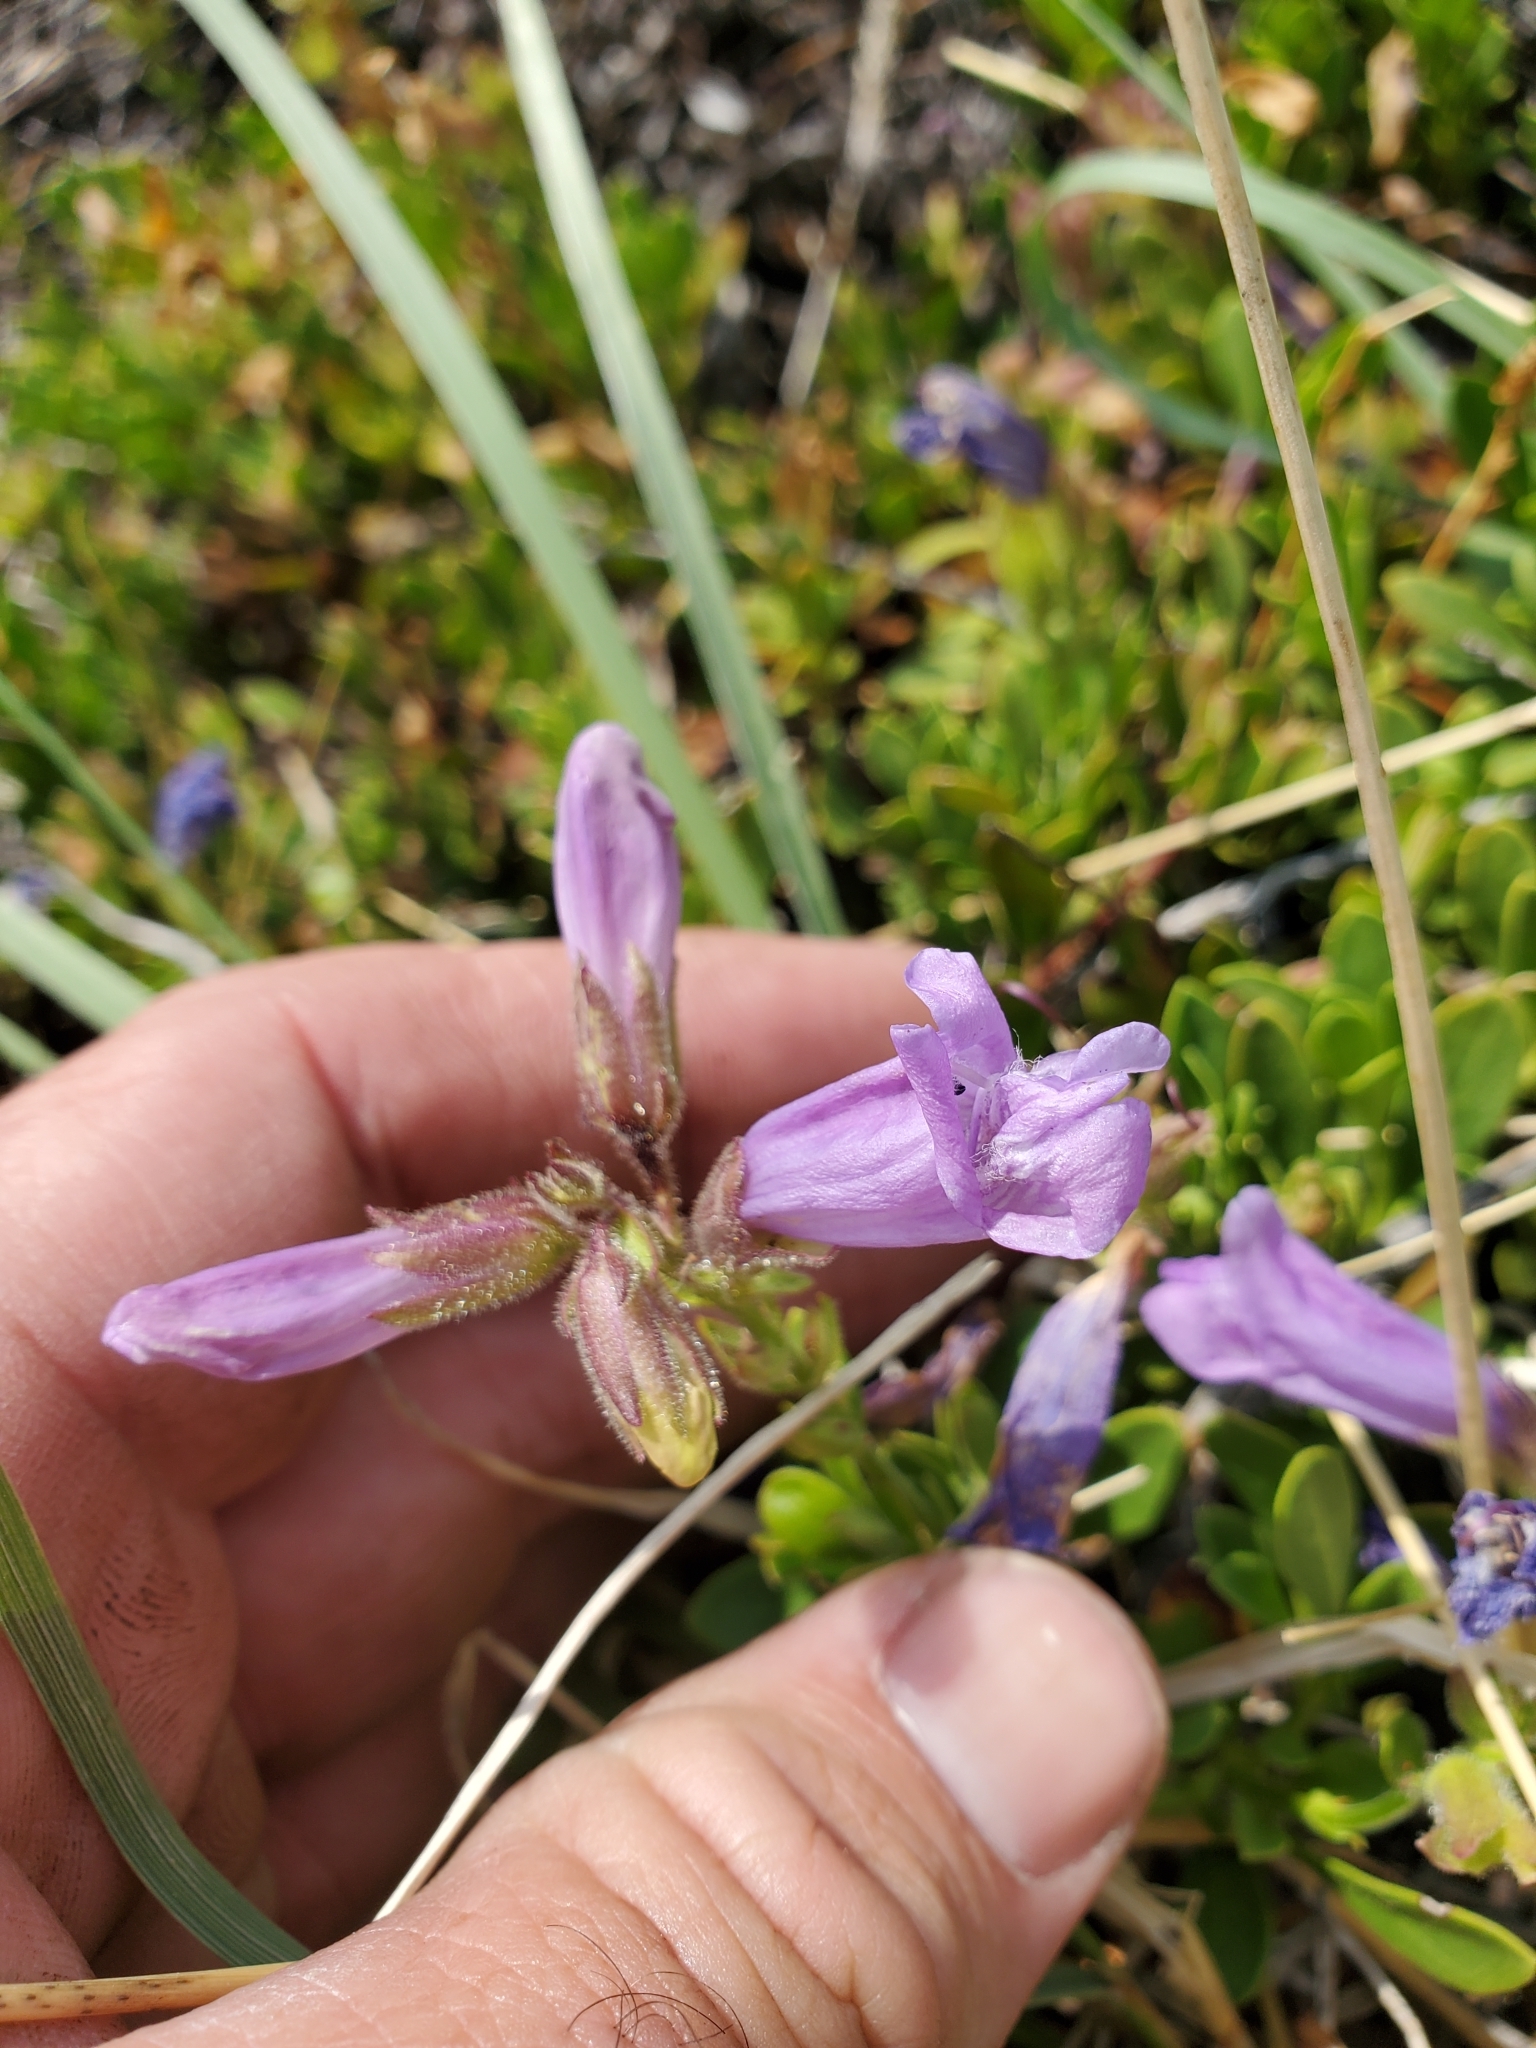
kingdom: Plantae
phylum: Tracheophyta
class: Magnoliopsida
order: Lamiales
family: Plantaginaceae
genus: Penstemon
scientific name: Penstemon davidsonii
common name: Davidson's penstemon
